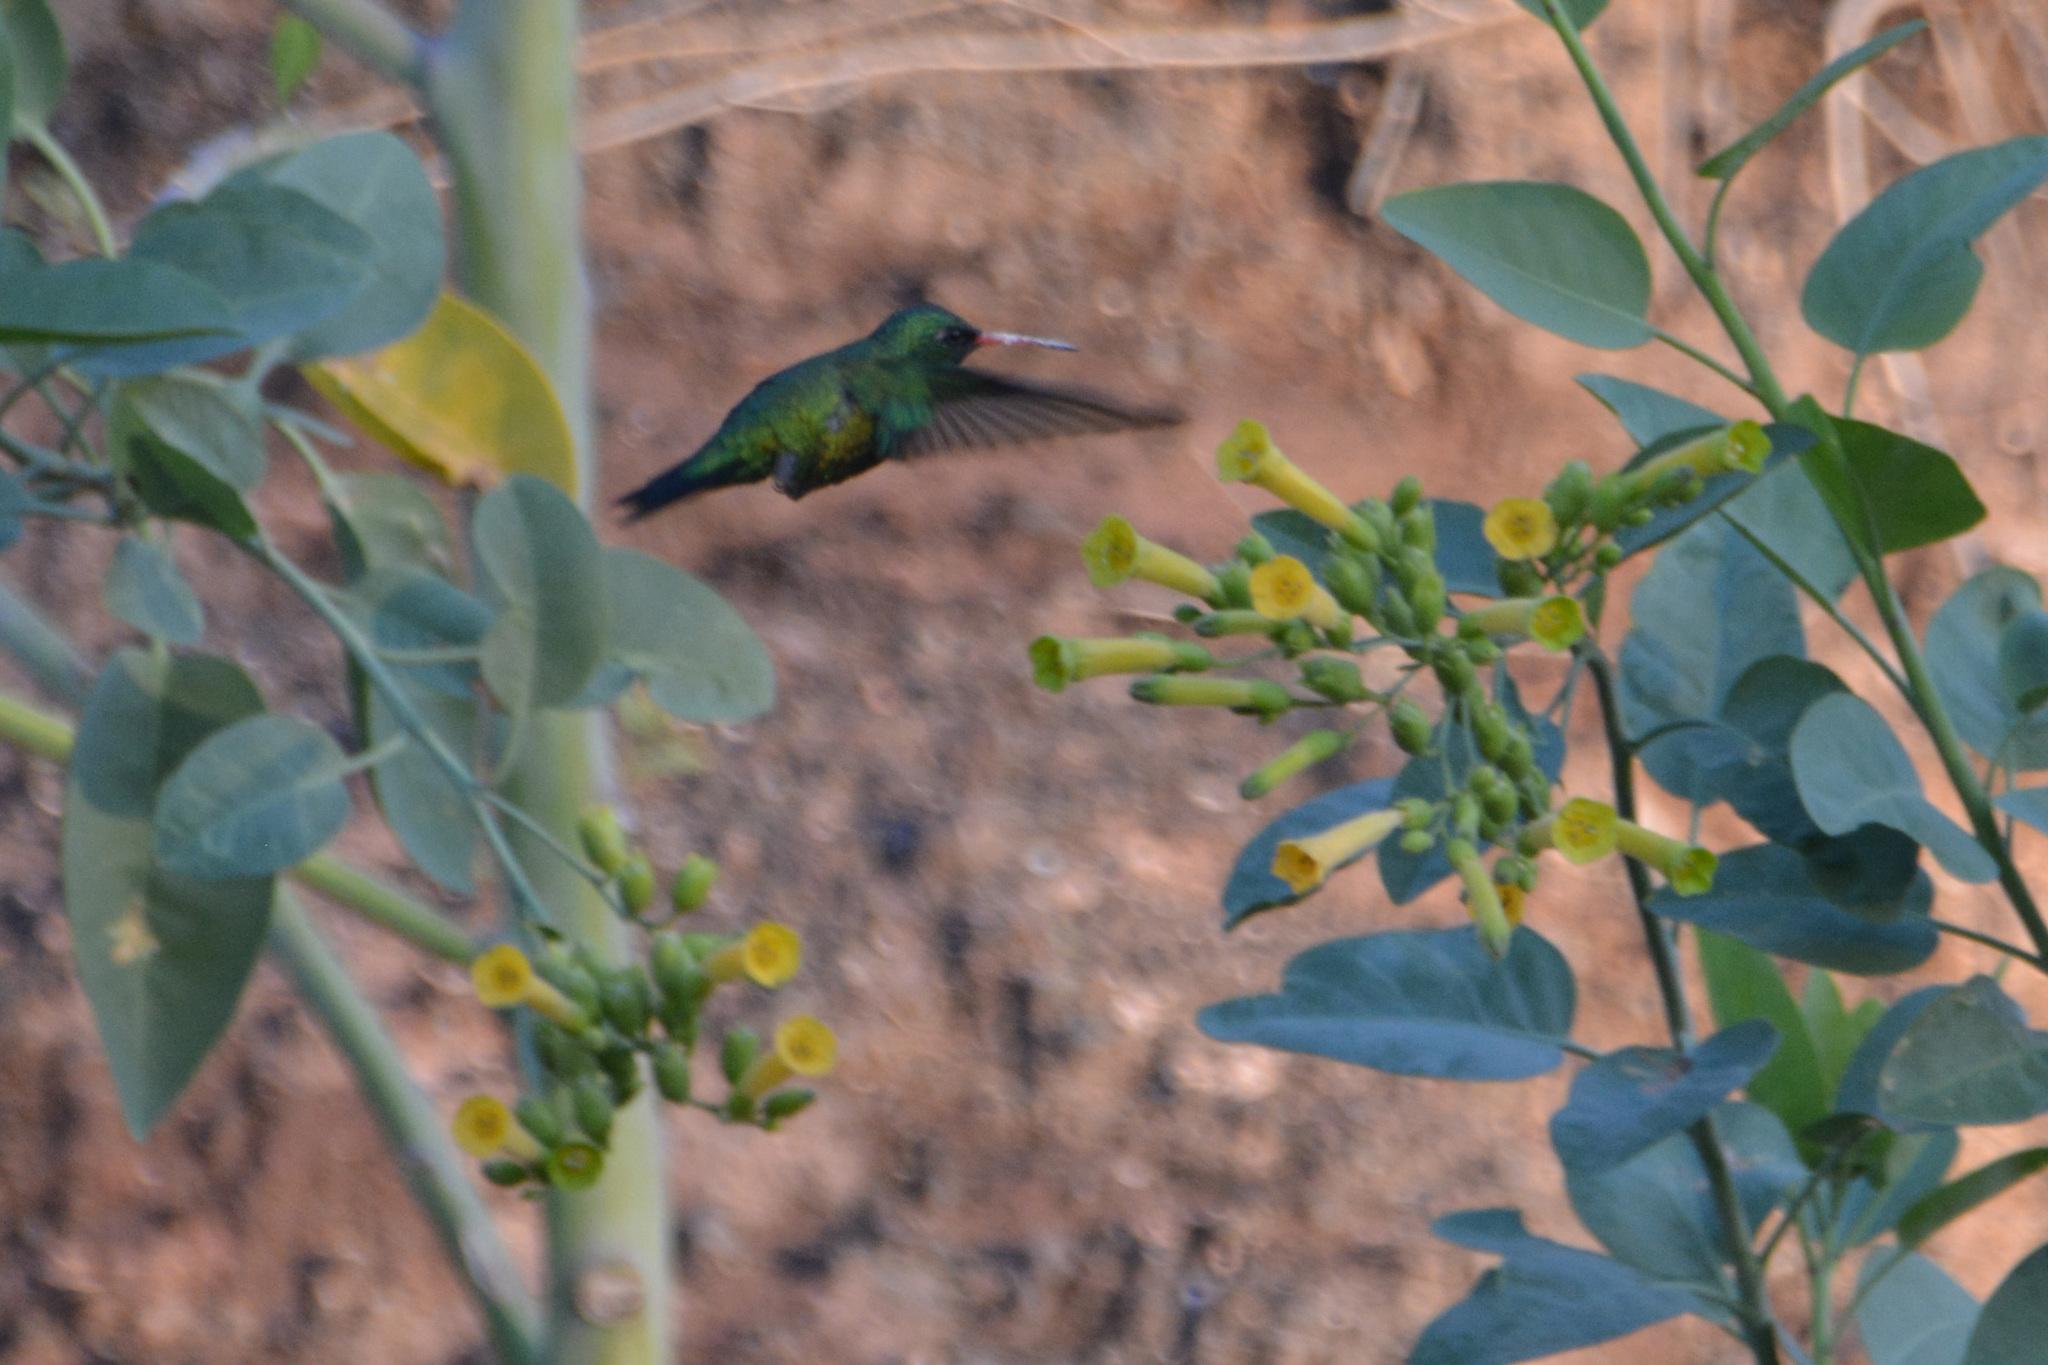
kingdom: Animalia
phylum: Chordata
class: Aves
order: Apodiformes
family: Trochilidae
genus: Chlorostilbon
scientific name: Chlorostilbon lucidus
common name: Glittering-bellied emerald
